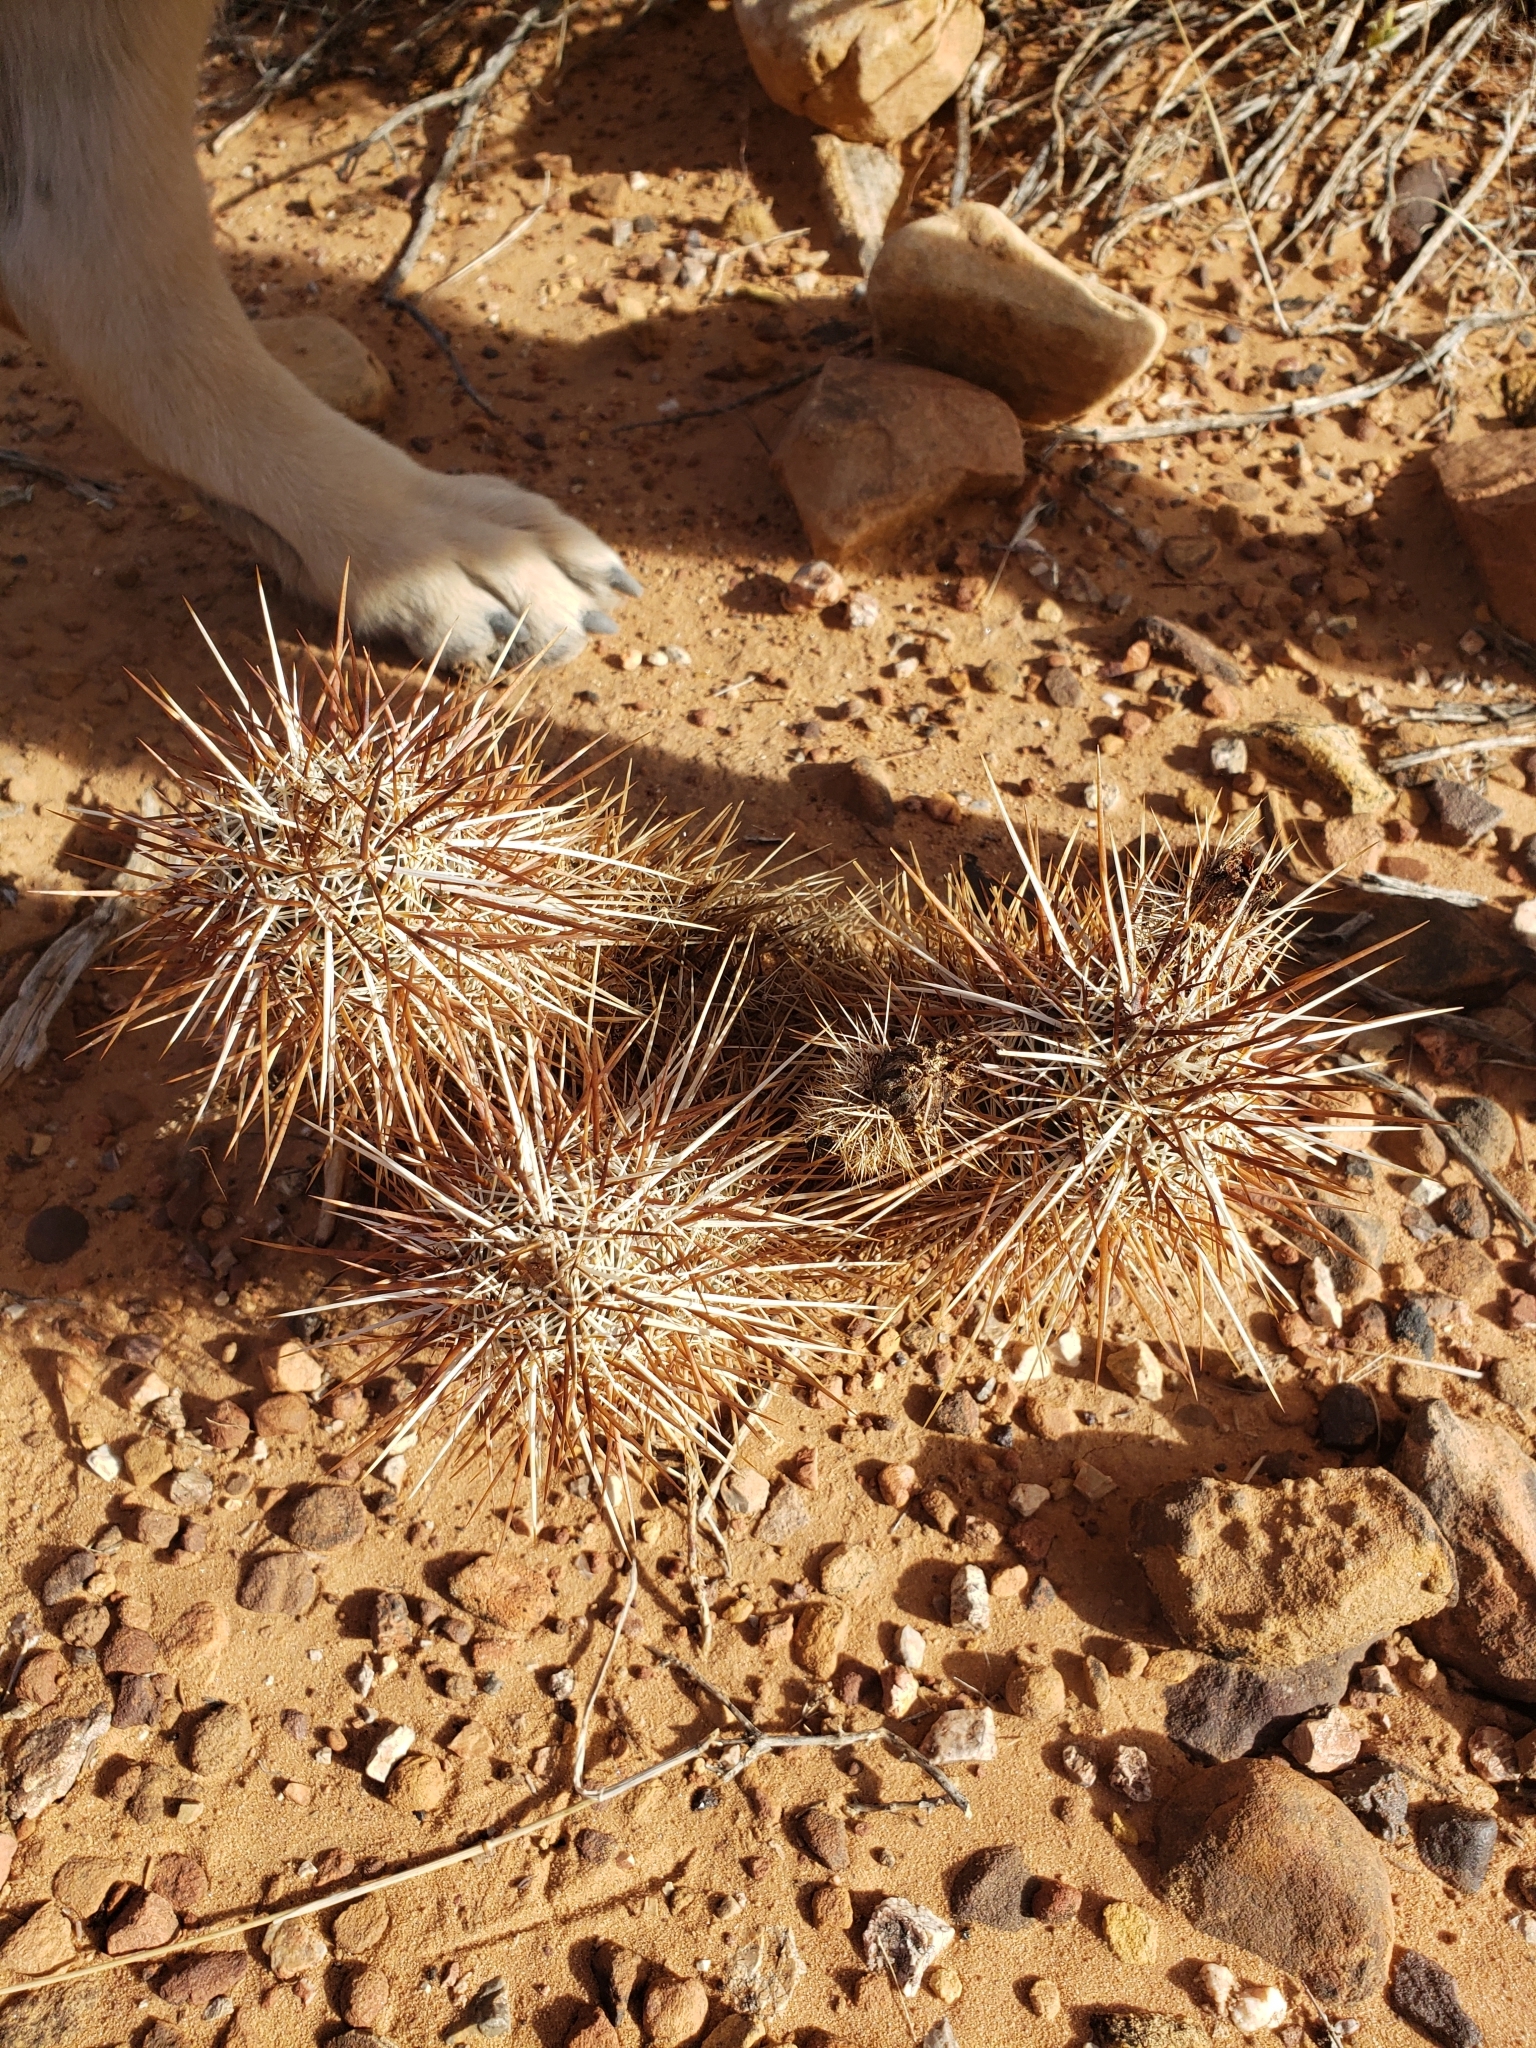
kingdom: Plantae
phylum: Tracheophyta
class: Magnoliopsida
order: Caryophyllales
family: Cactaceae
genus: Echinocereus
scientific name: Echinocereus engelmannii
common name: Engelmann's hedgehog cactus
